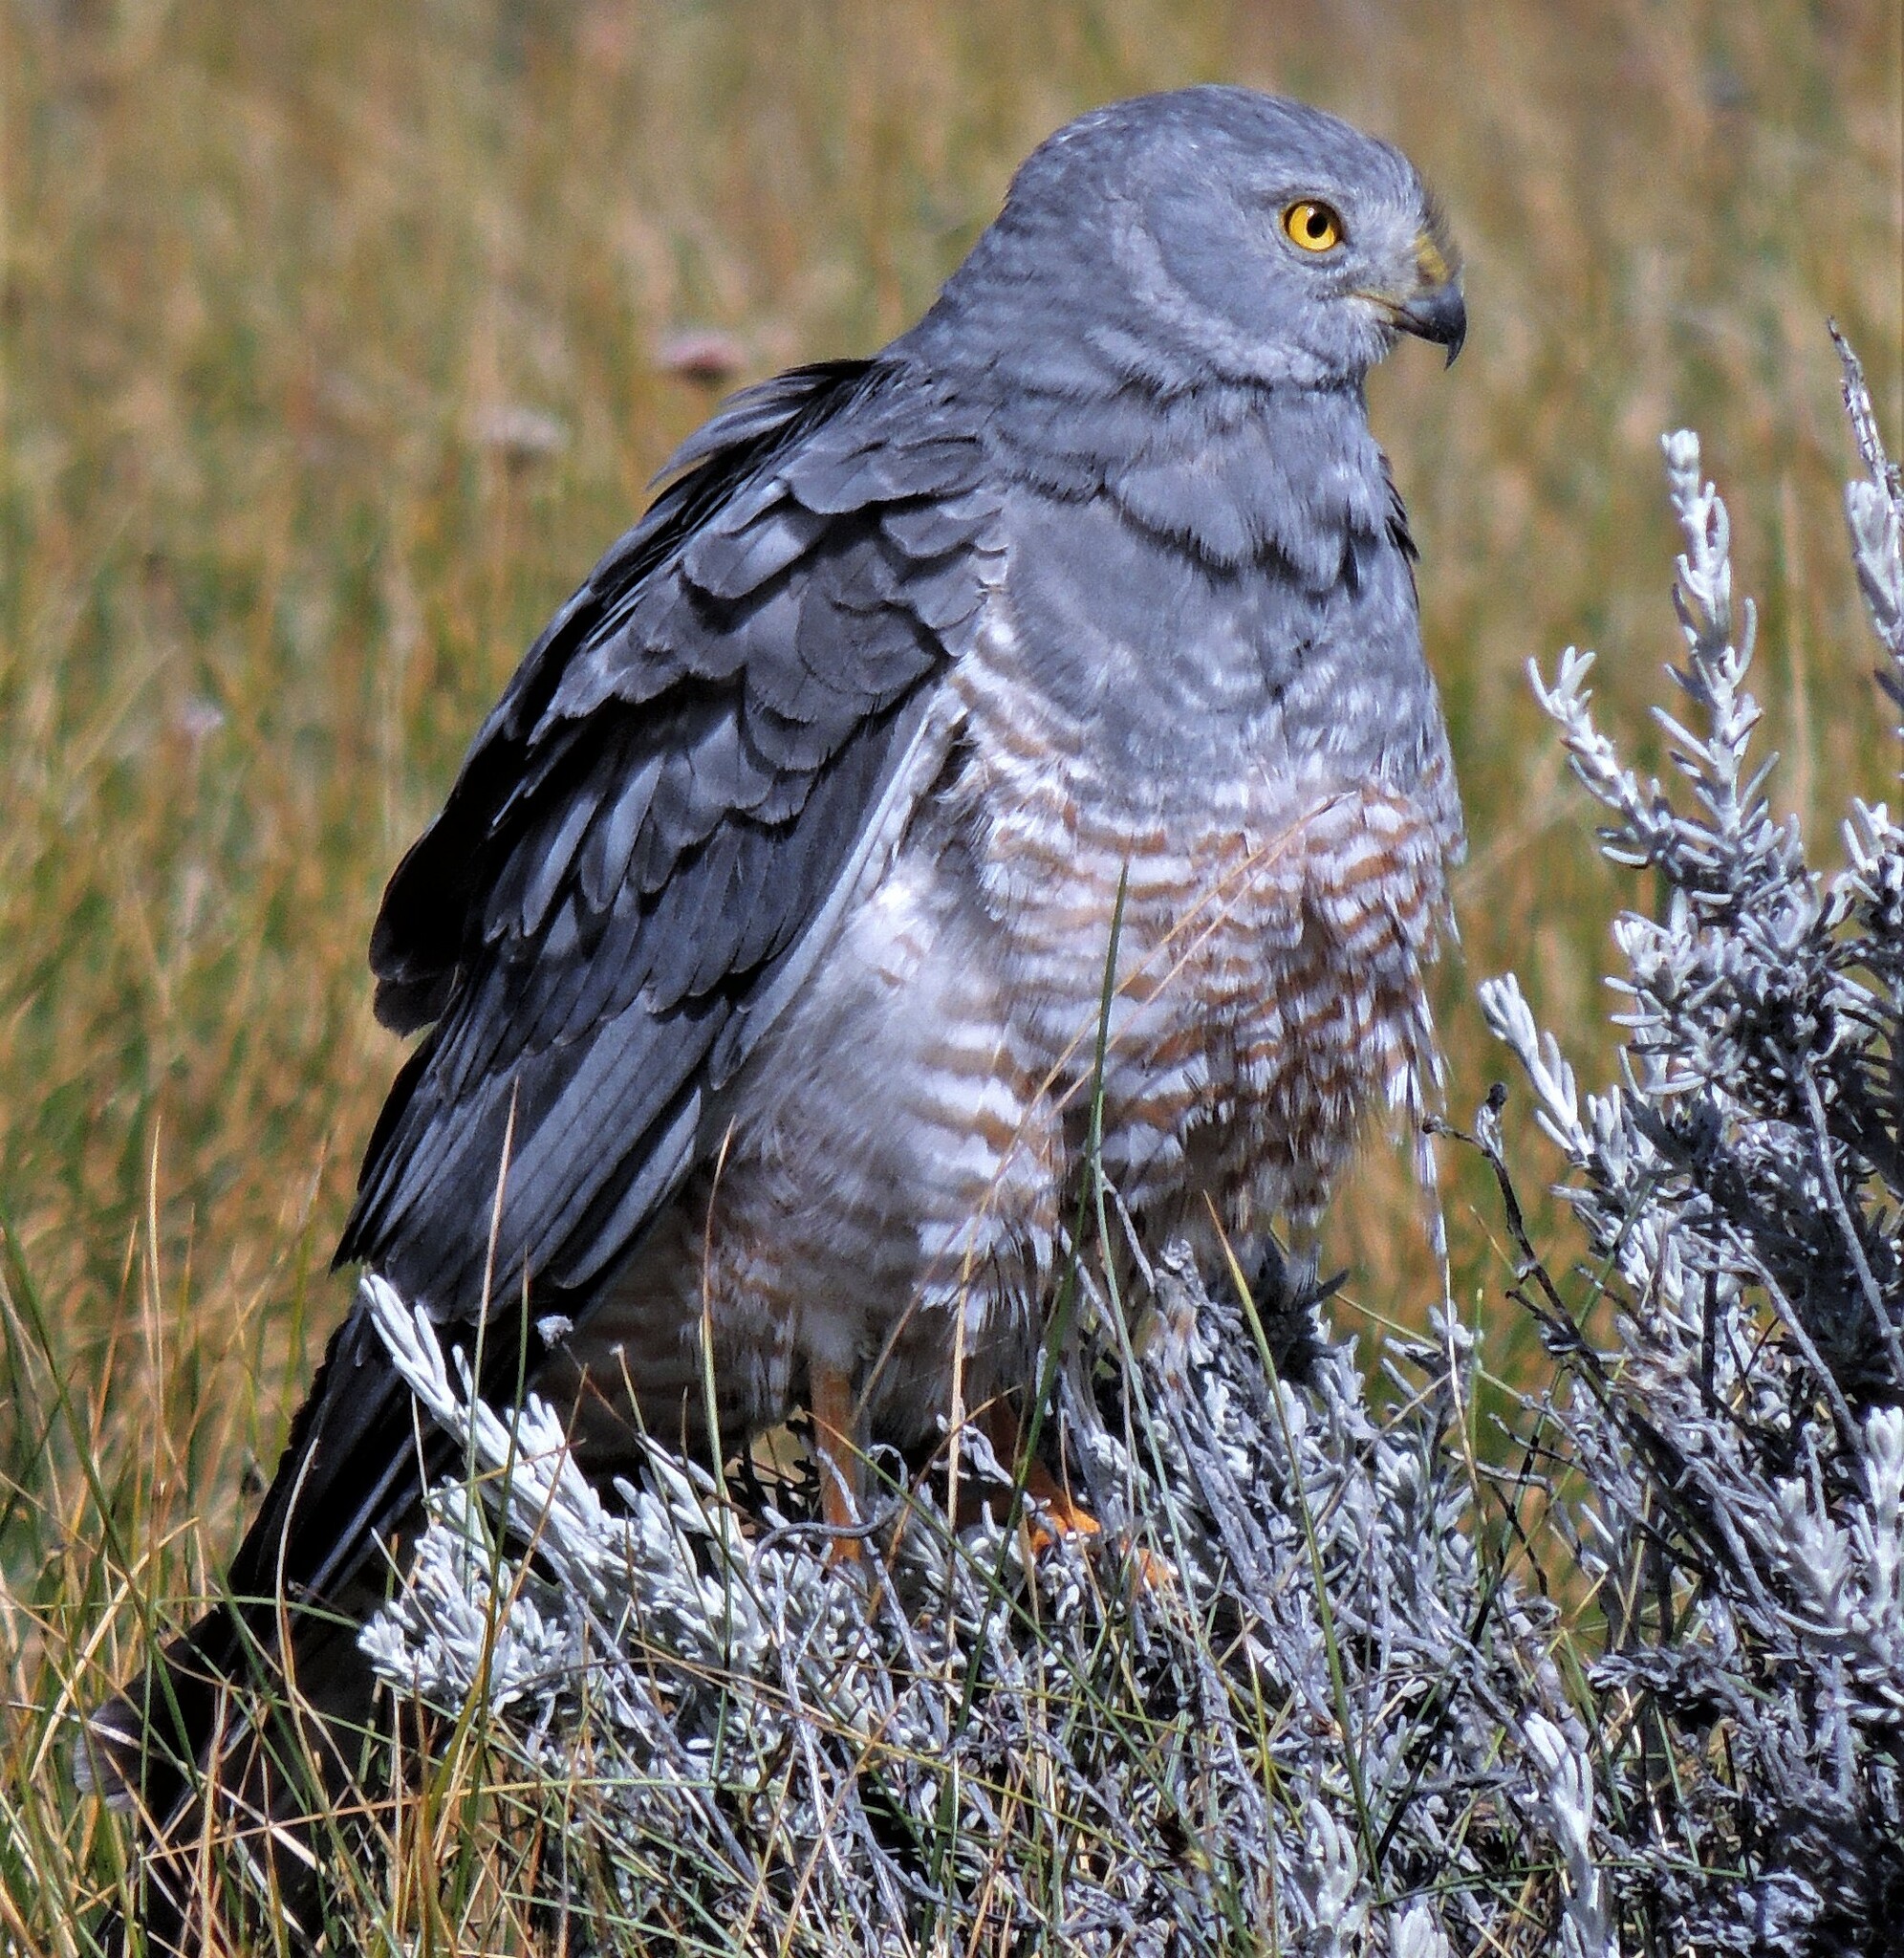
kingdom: Animalia
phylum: Chordata
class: Aves
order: Accipitriformes
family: Accipitridae
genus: Circus
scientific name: Circus cinereus
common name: Cinereous harrier
